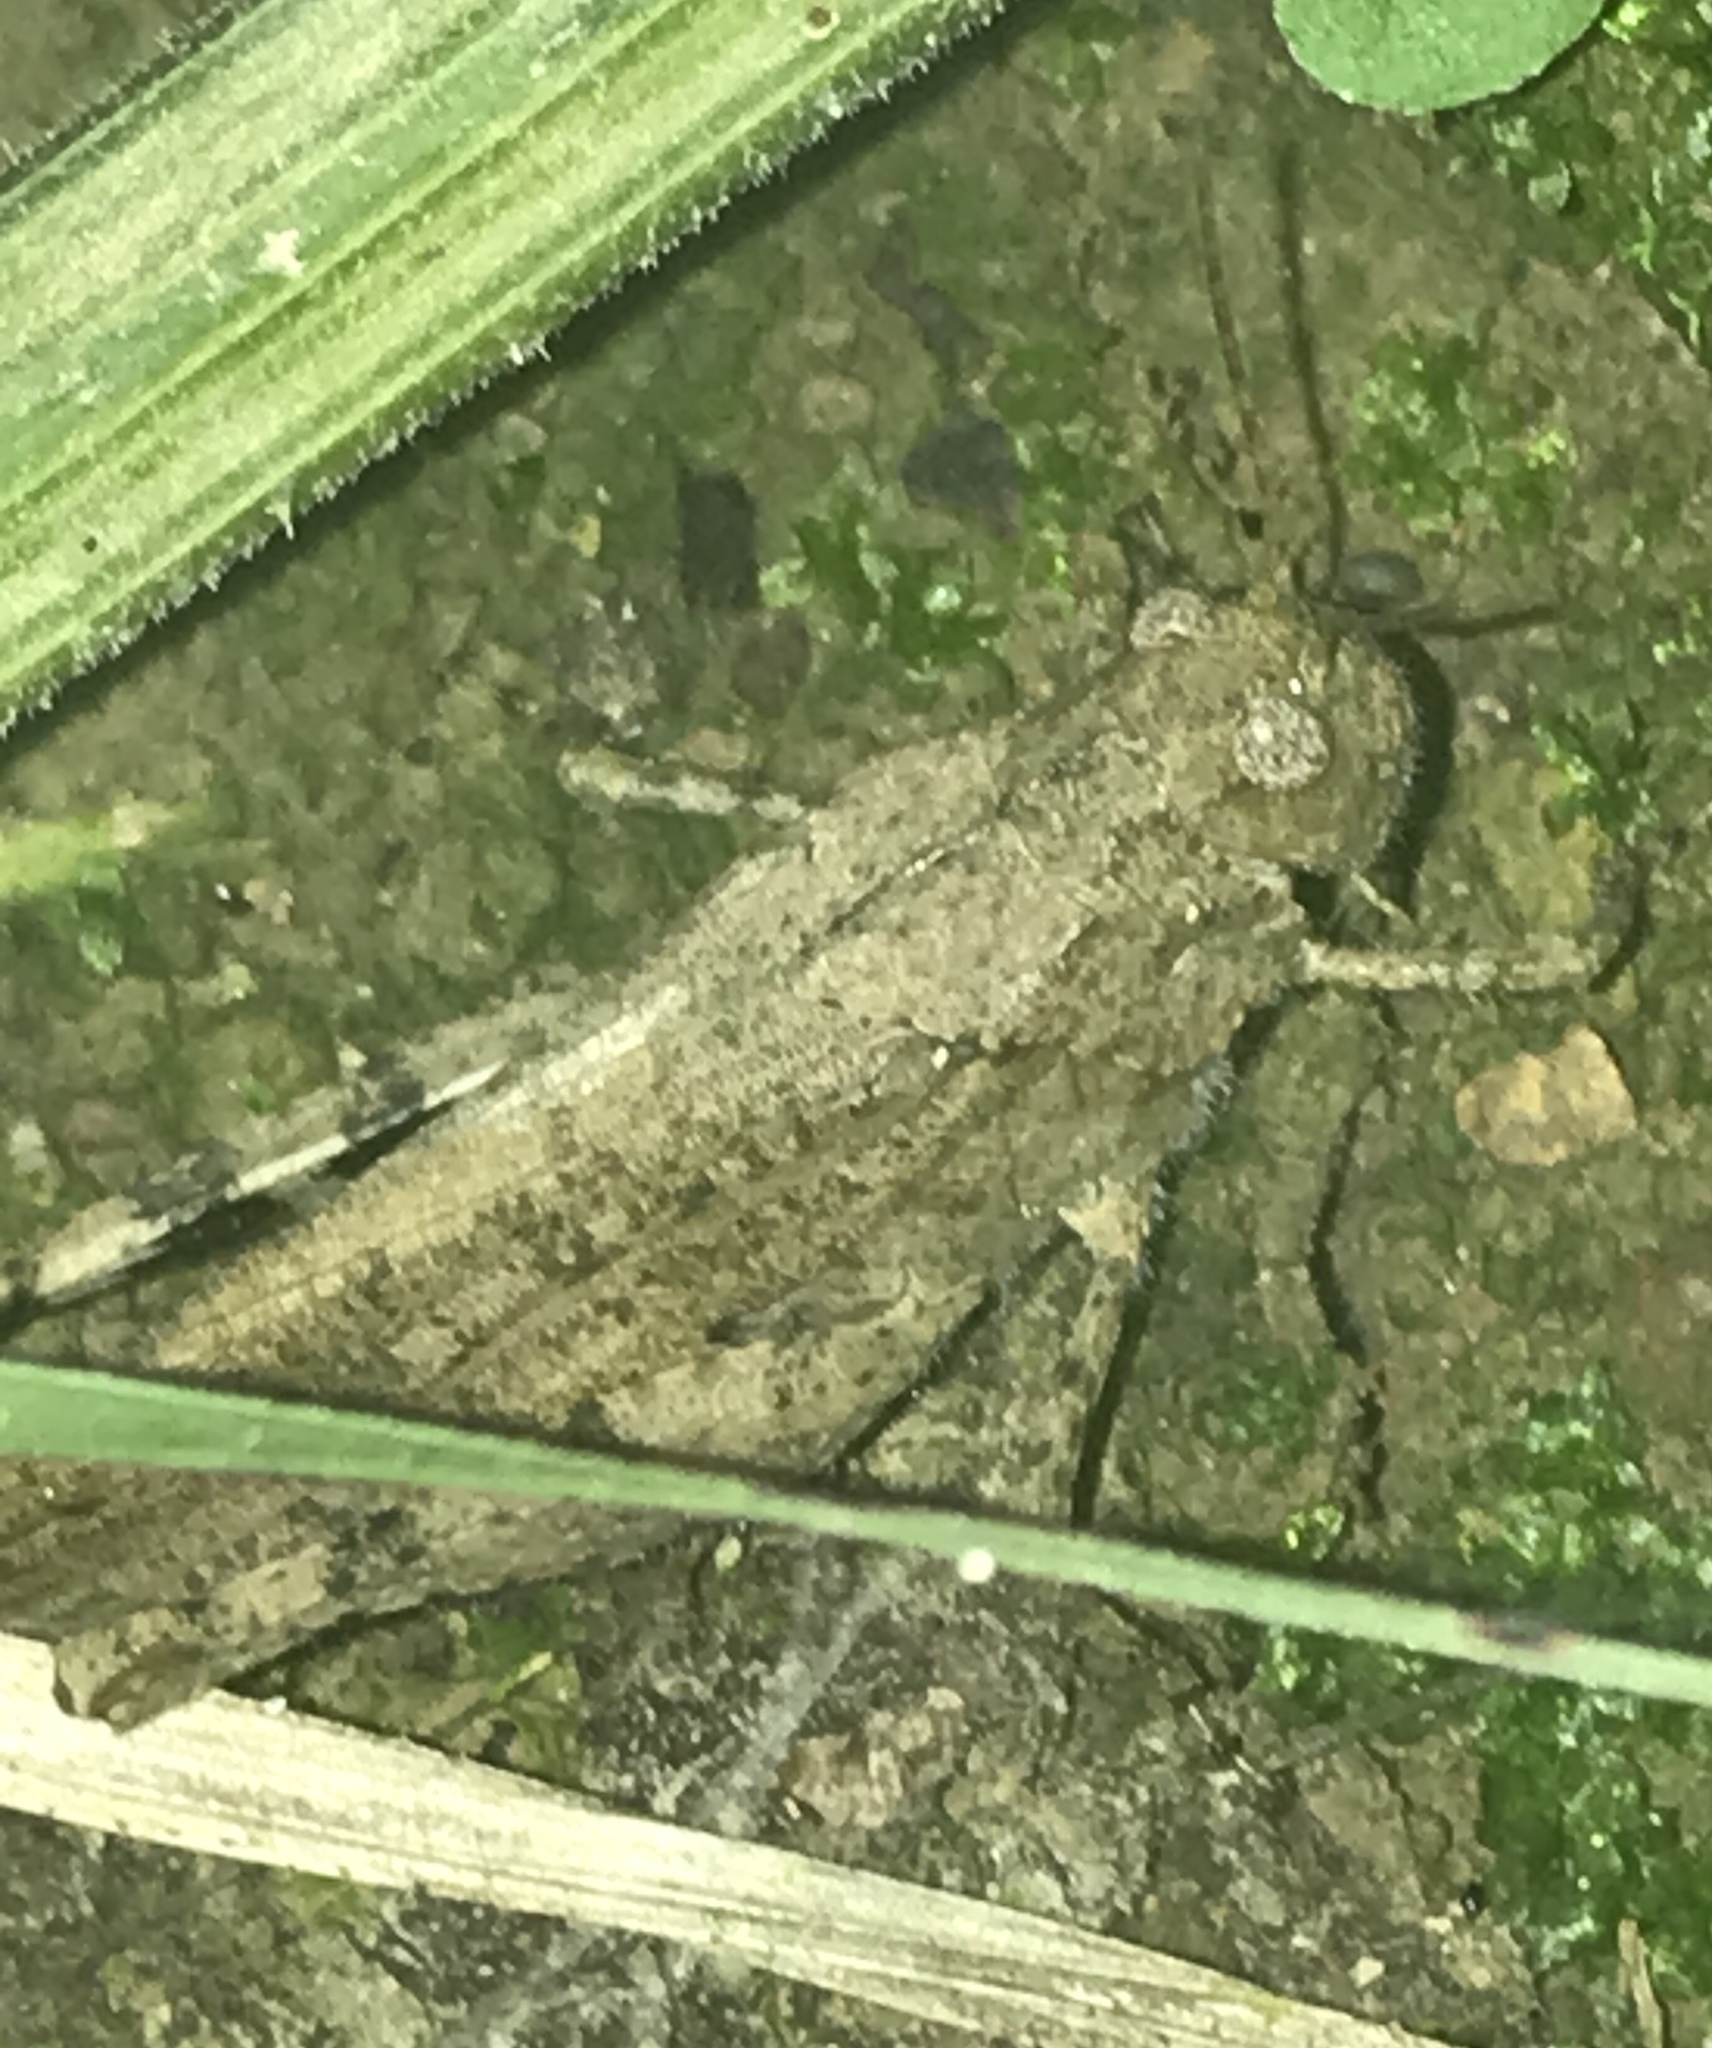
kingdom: Animalia
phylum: Arthropoda
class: Insecta
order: Orthoptera
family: Acrididae
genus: Dissosteira
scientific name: Dissosteira carolina
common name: Carolina grasshopper
